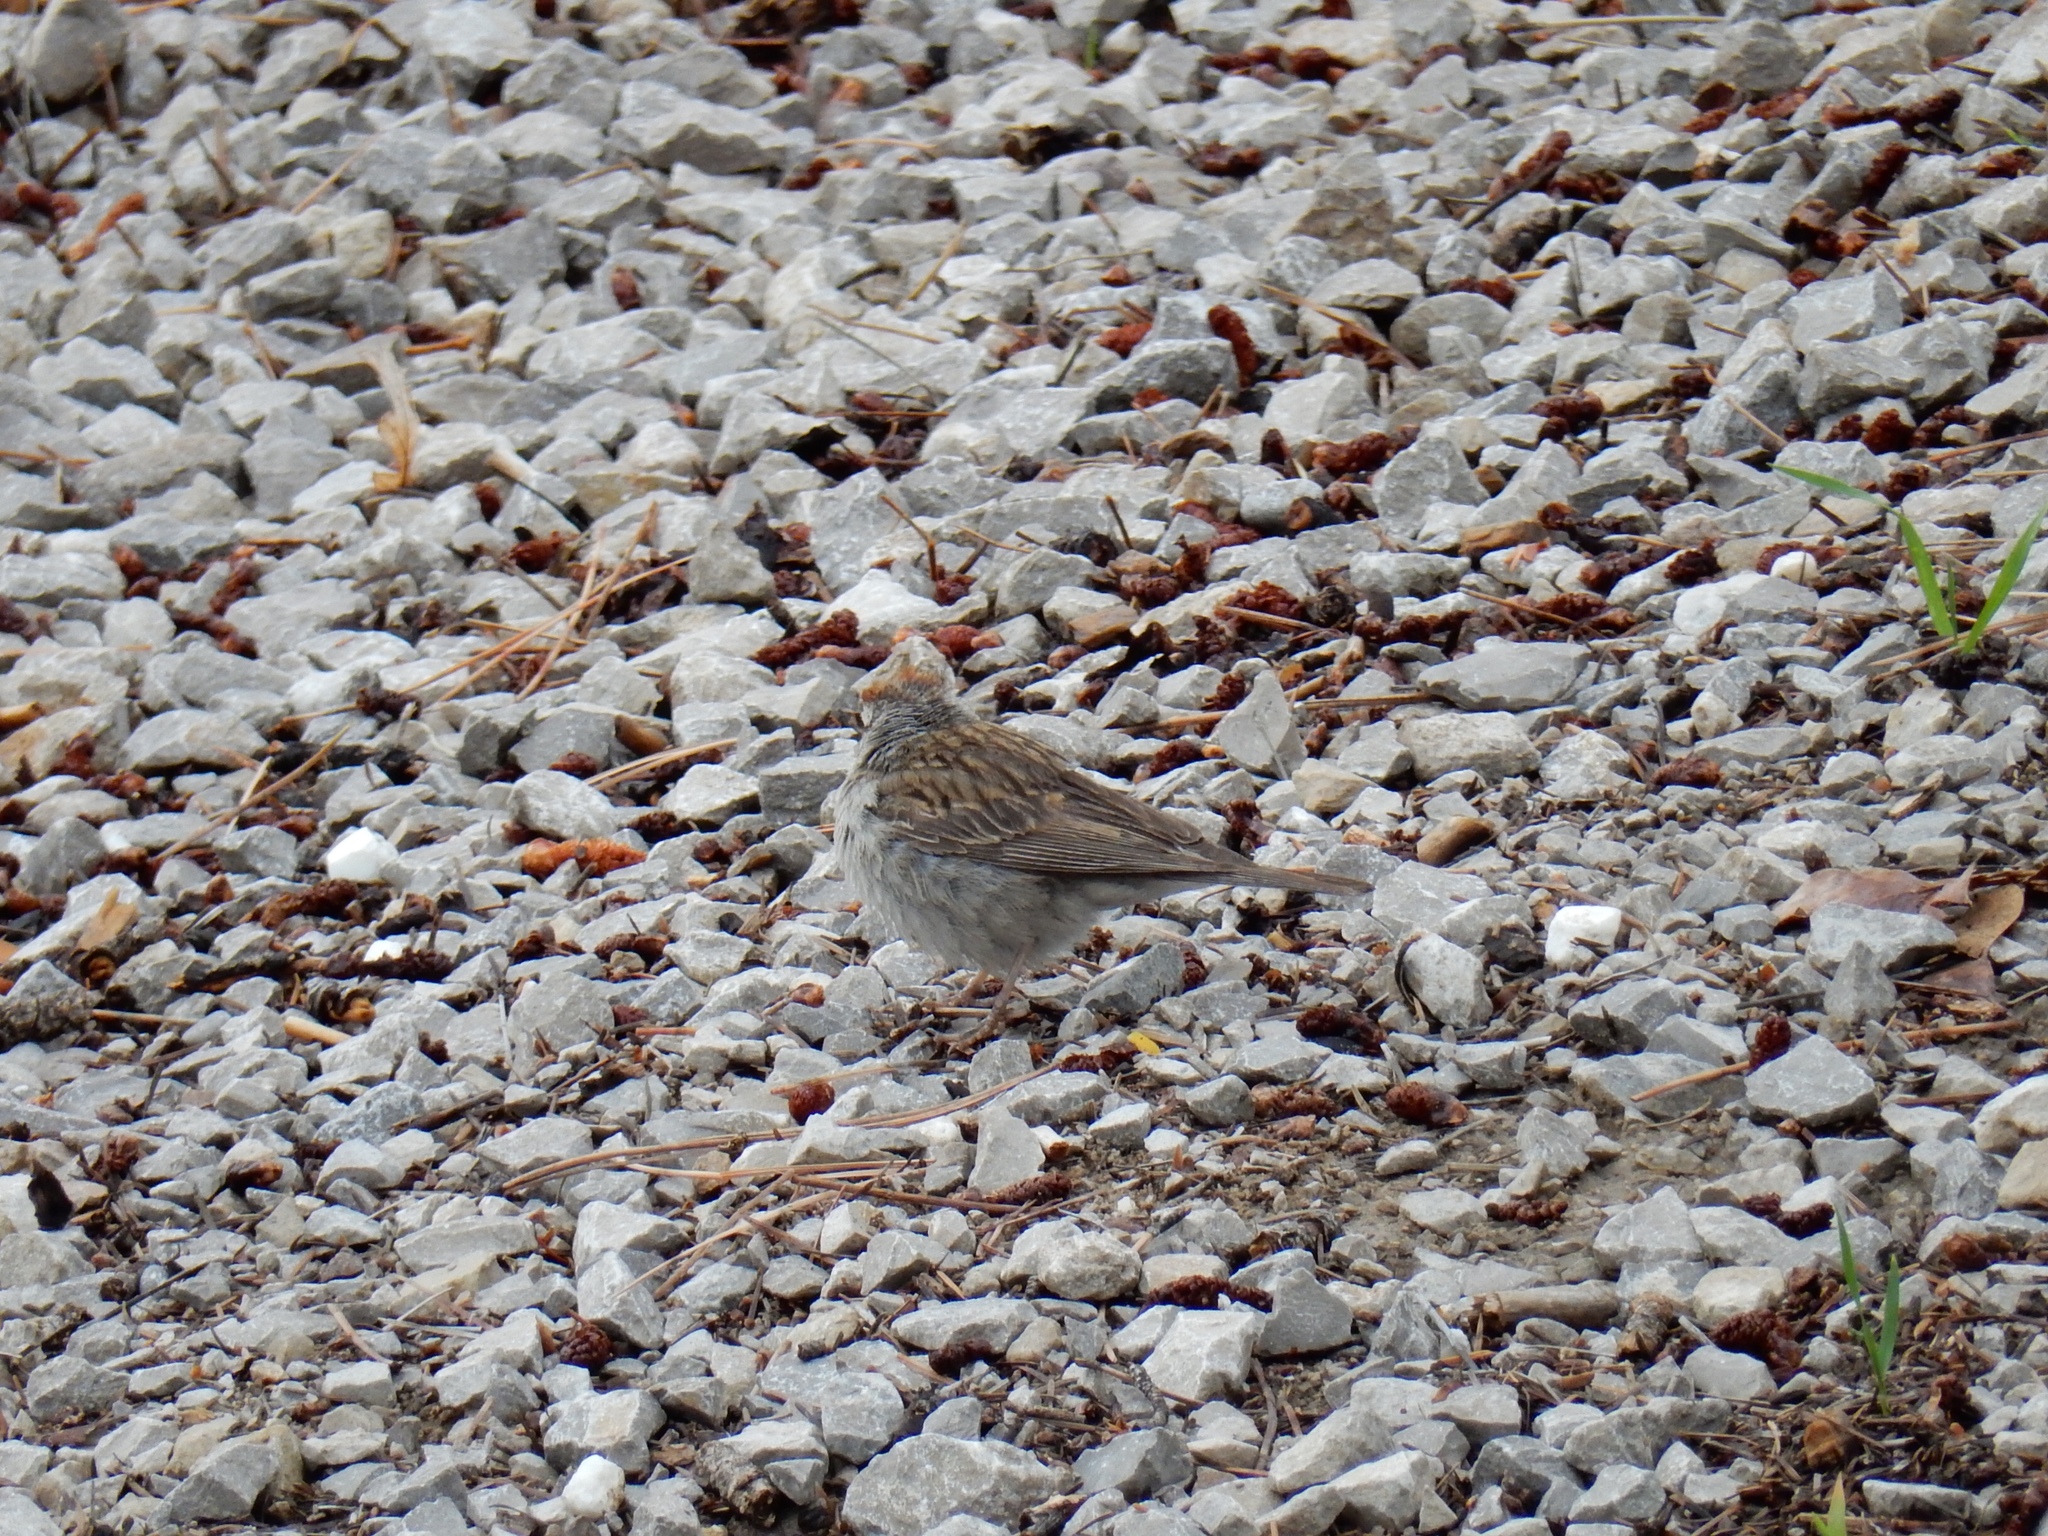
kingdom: Animalia
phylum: Chordata
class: Aves
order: Passeriformes
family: Passerellidae
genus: Spizella
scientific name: Spizella passerina
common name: Chipping sparrow
